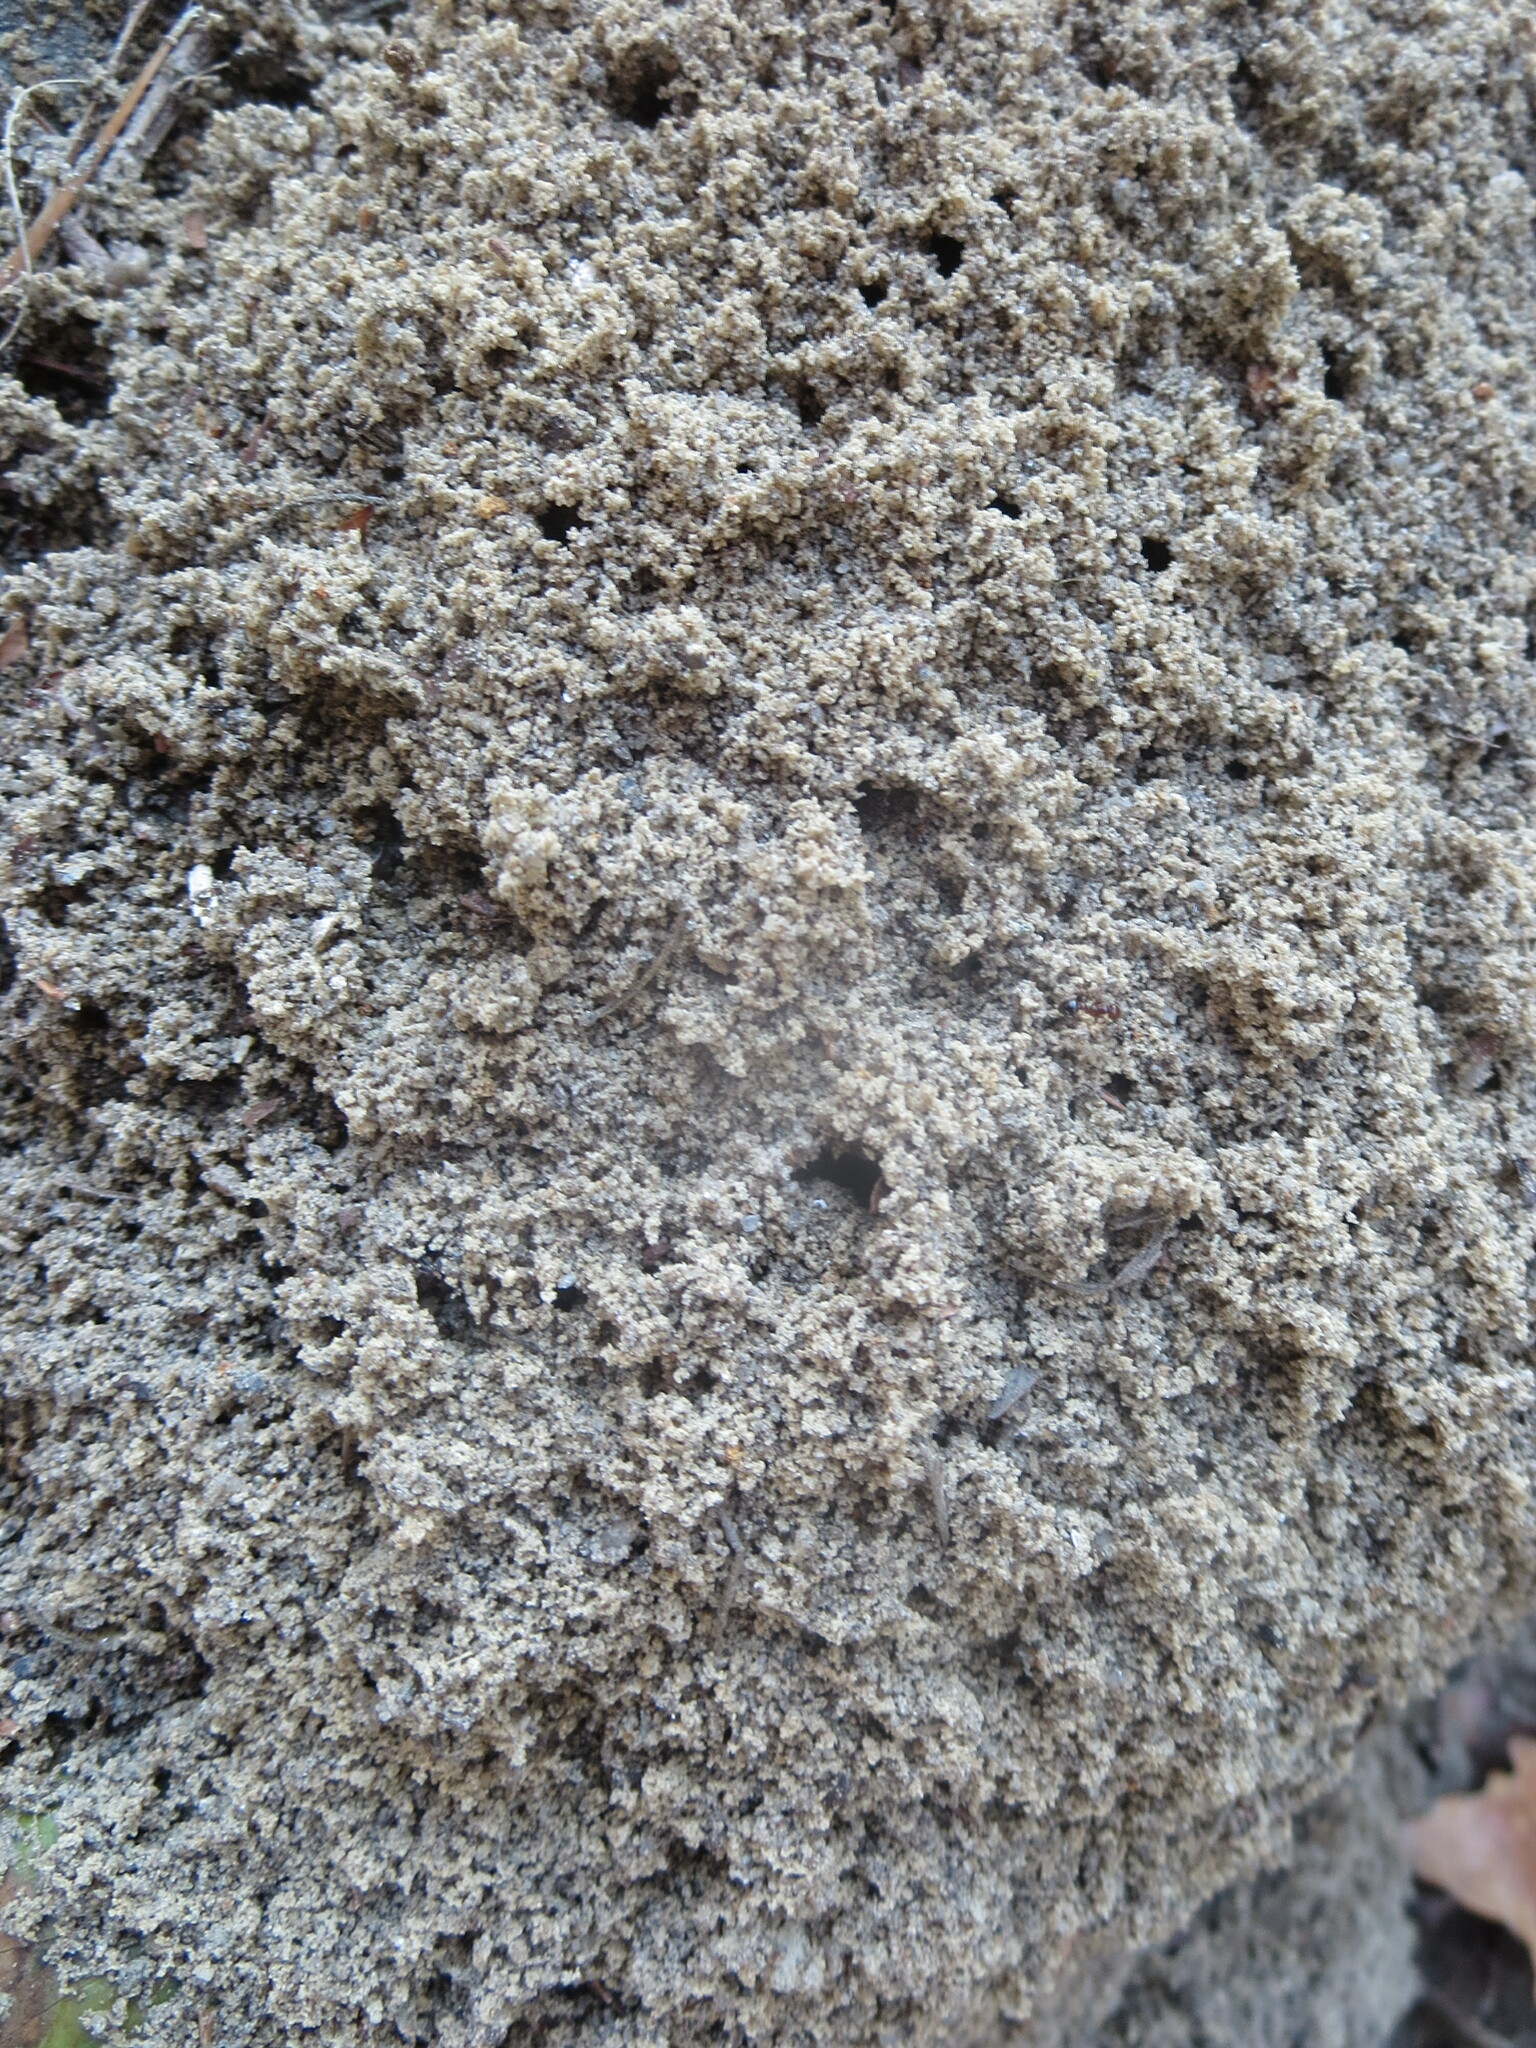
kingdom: Animalia
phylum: Arthropoda
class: Insecta
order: Hymenoptera
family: Formicidae
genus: Solenopsis
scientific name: Solenopsis invicta
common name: Red imported fire ant
